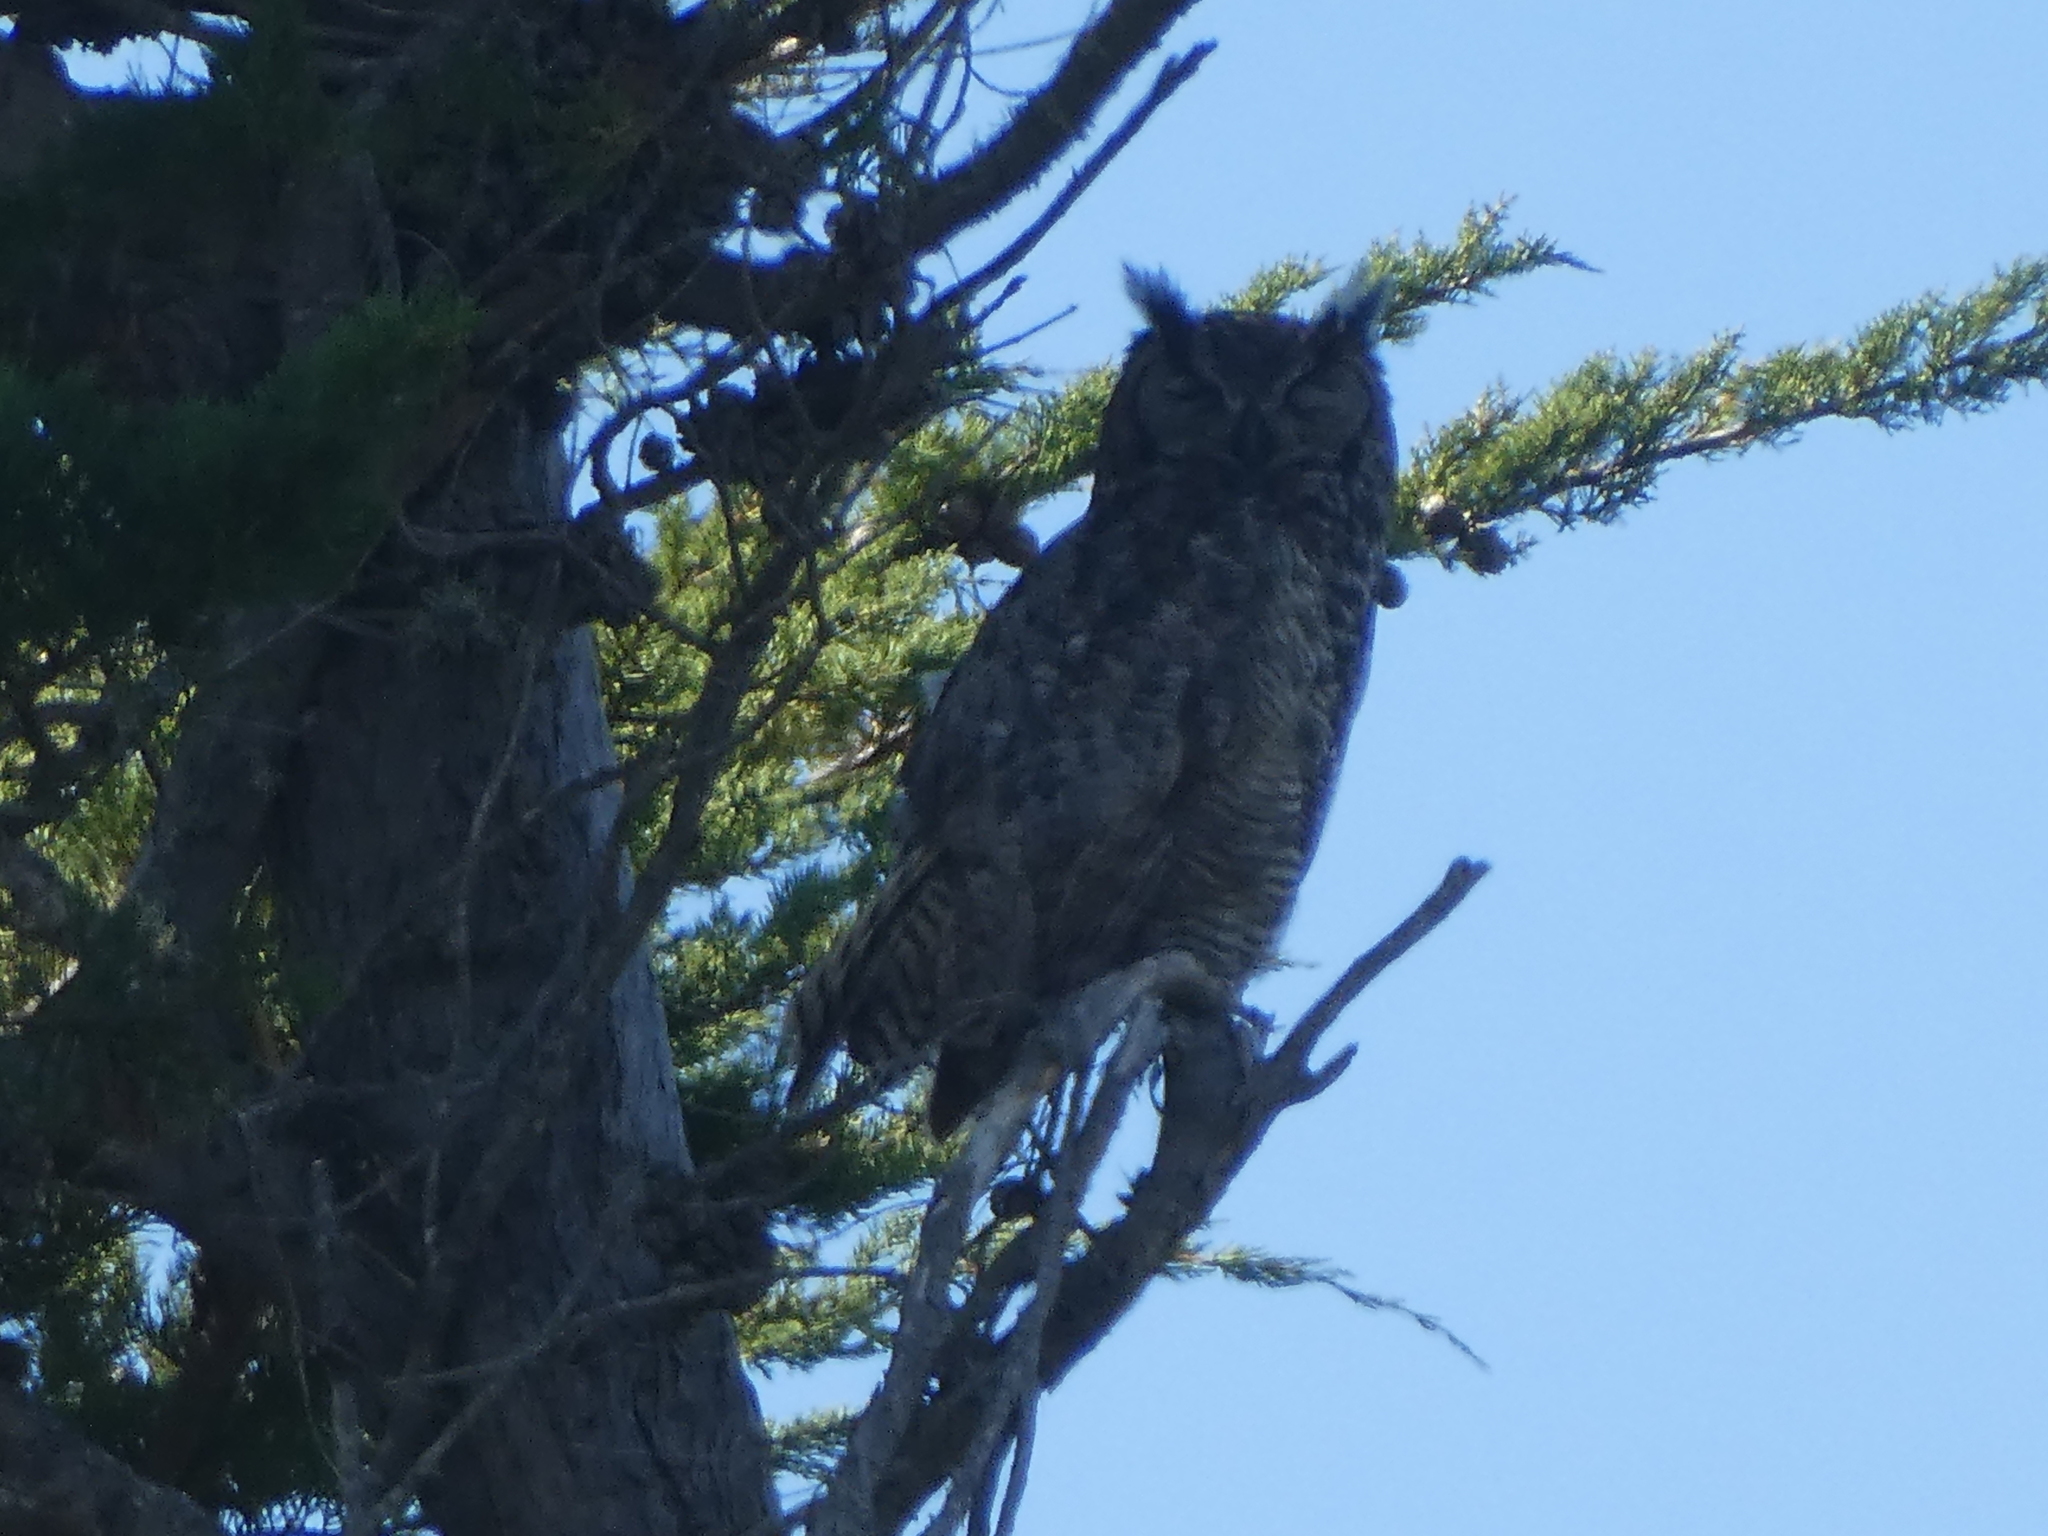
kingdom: Animalia
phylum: Chordata
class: Aves
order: Strigiformes
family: Strigidae
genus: Bubo
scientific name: Bubo virginianus
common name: Great horned owl
